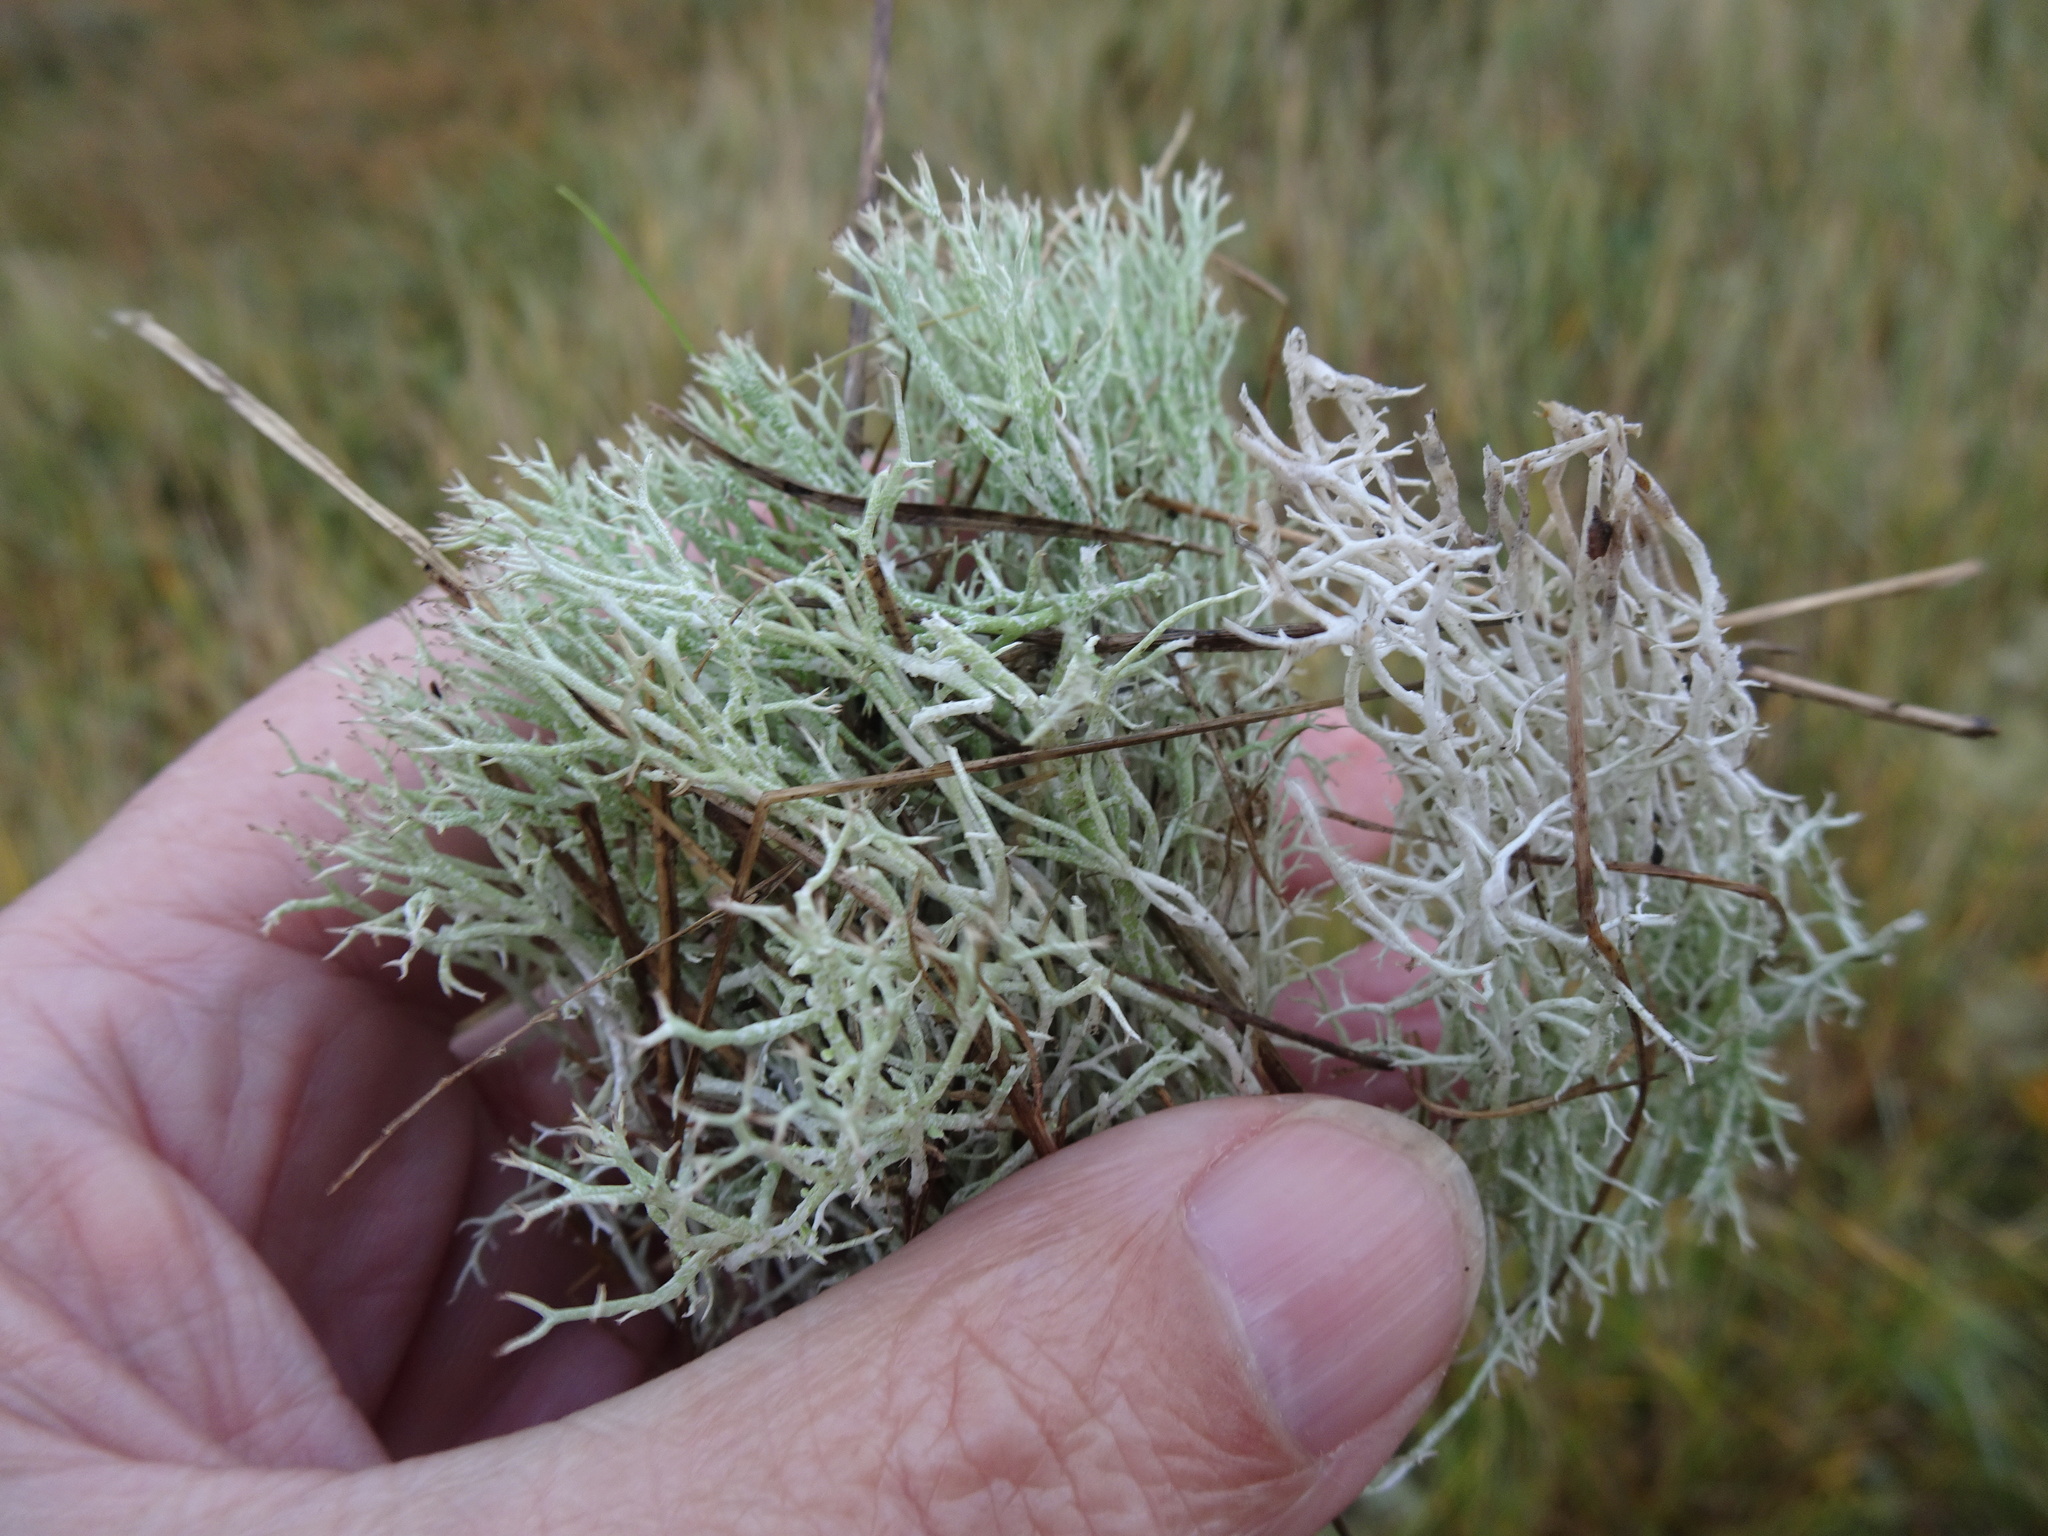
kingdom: Fungi
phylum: Ascomycota
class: Lecanoromycetes
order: Lecanorales
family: Cladoniaceae
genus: Cladonia
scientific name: Cladonia rangiformis
